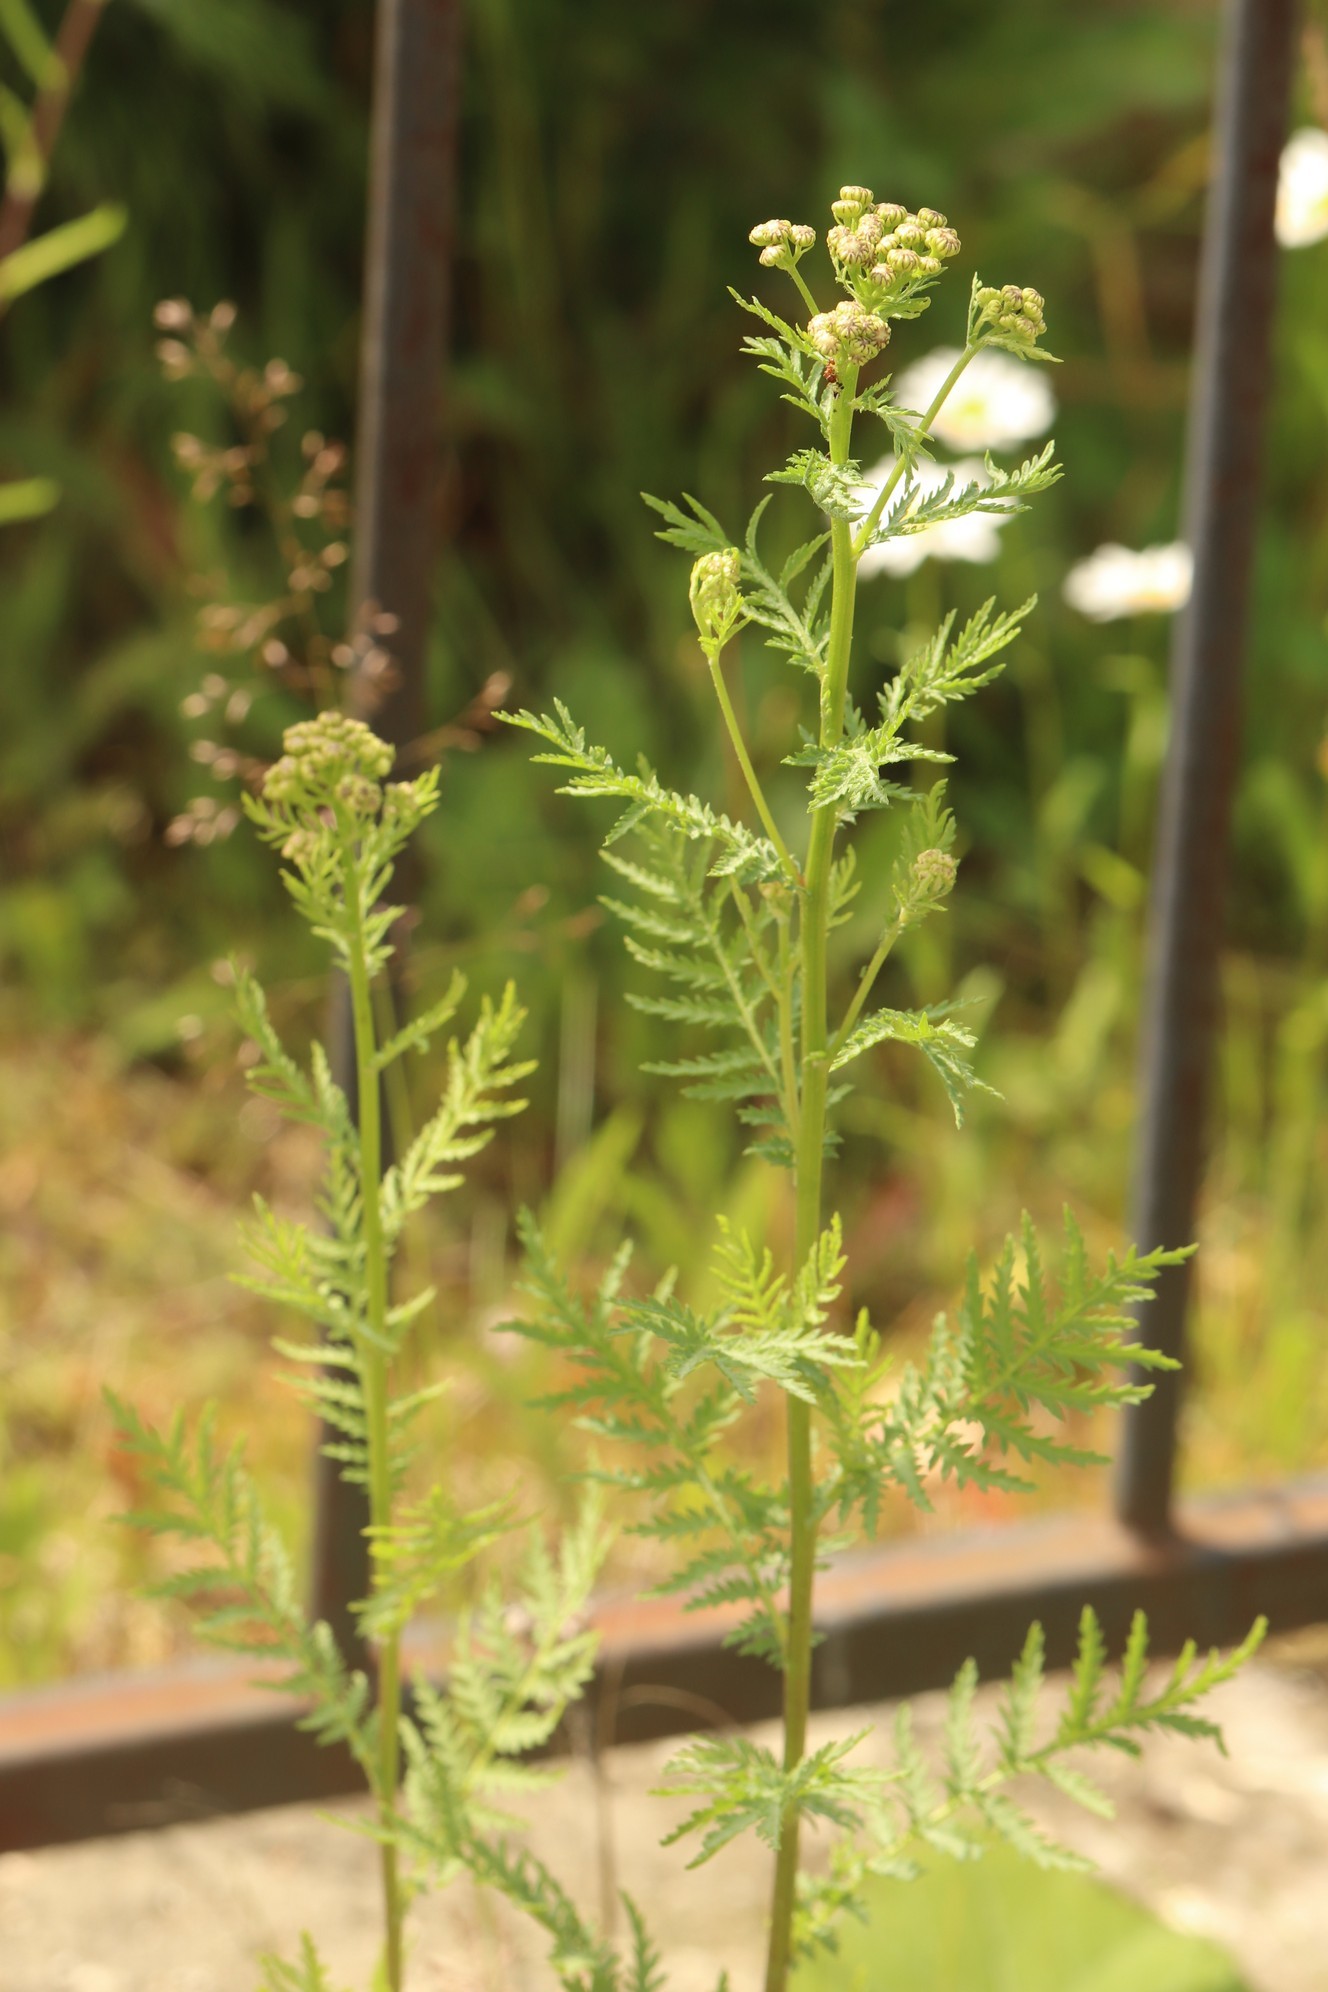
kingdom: Plantae
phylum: Tracheophyta
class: Magnoliopsida
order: Asterales
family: Asteraceae
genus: Tanacetum
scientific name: Tanacetum vulgare
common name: Common tansy
